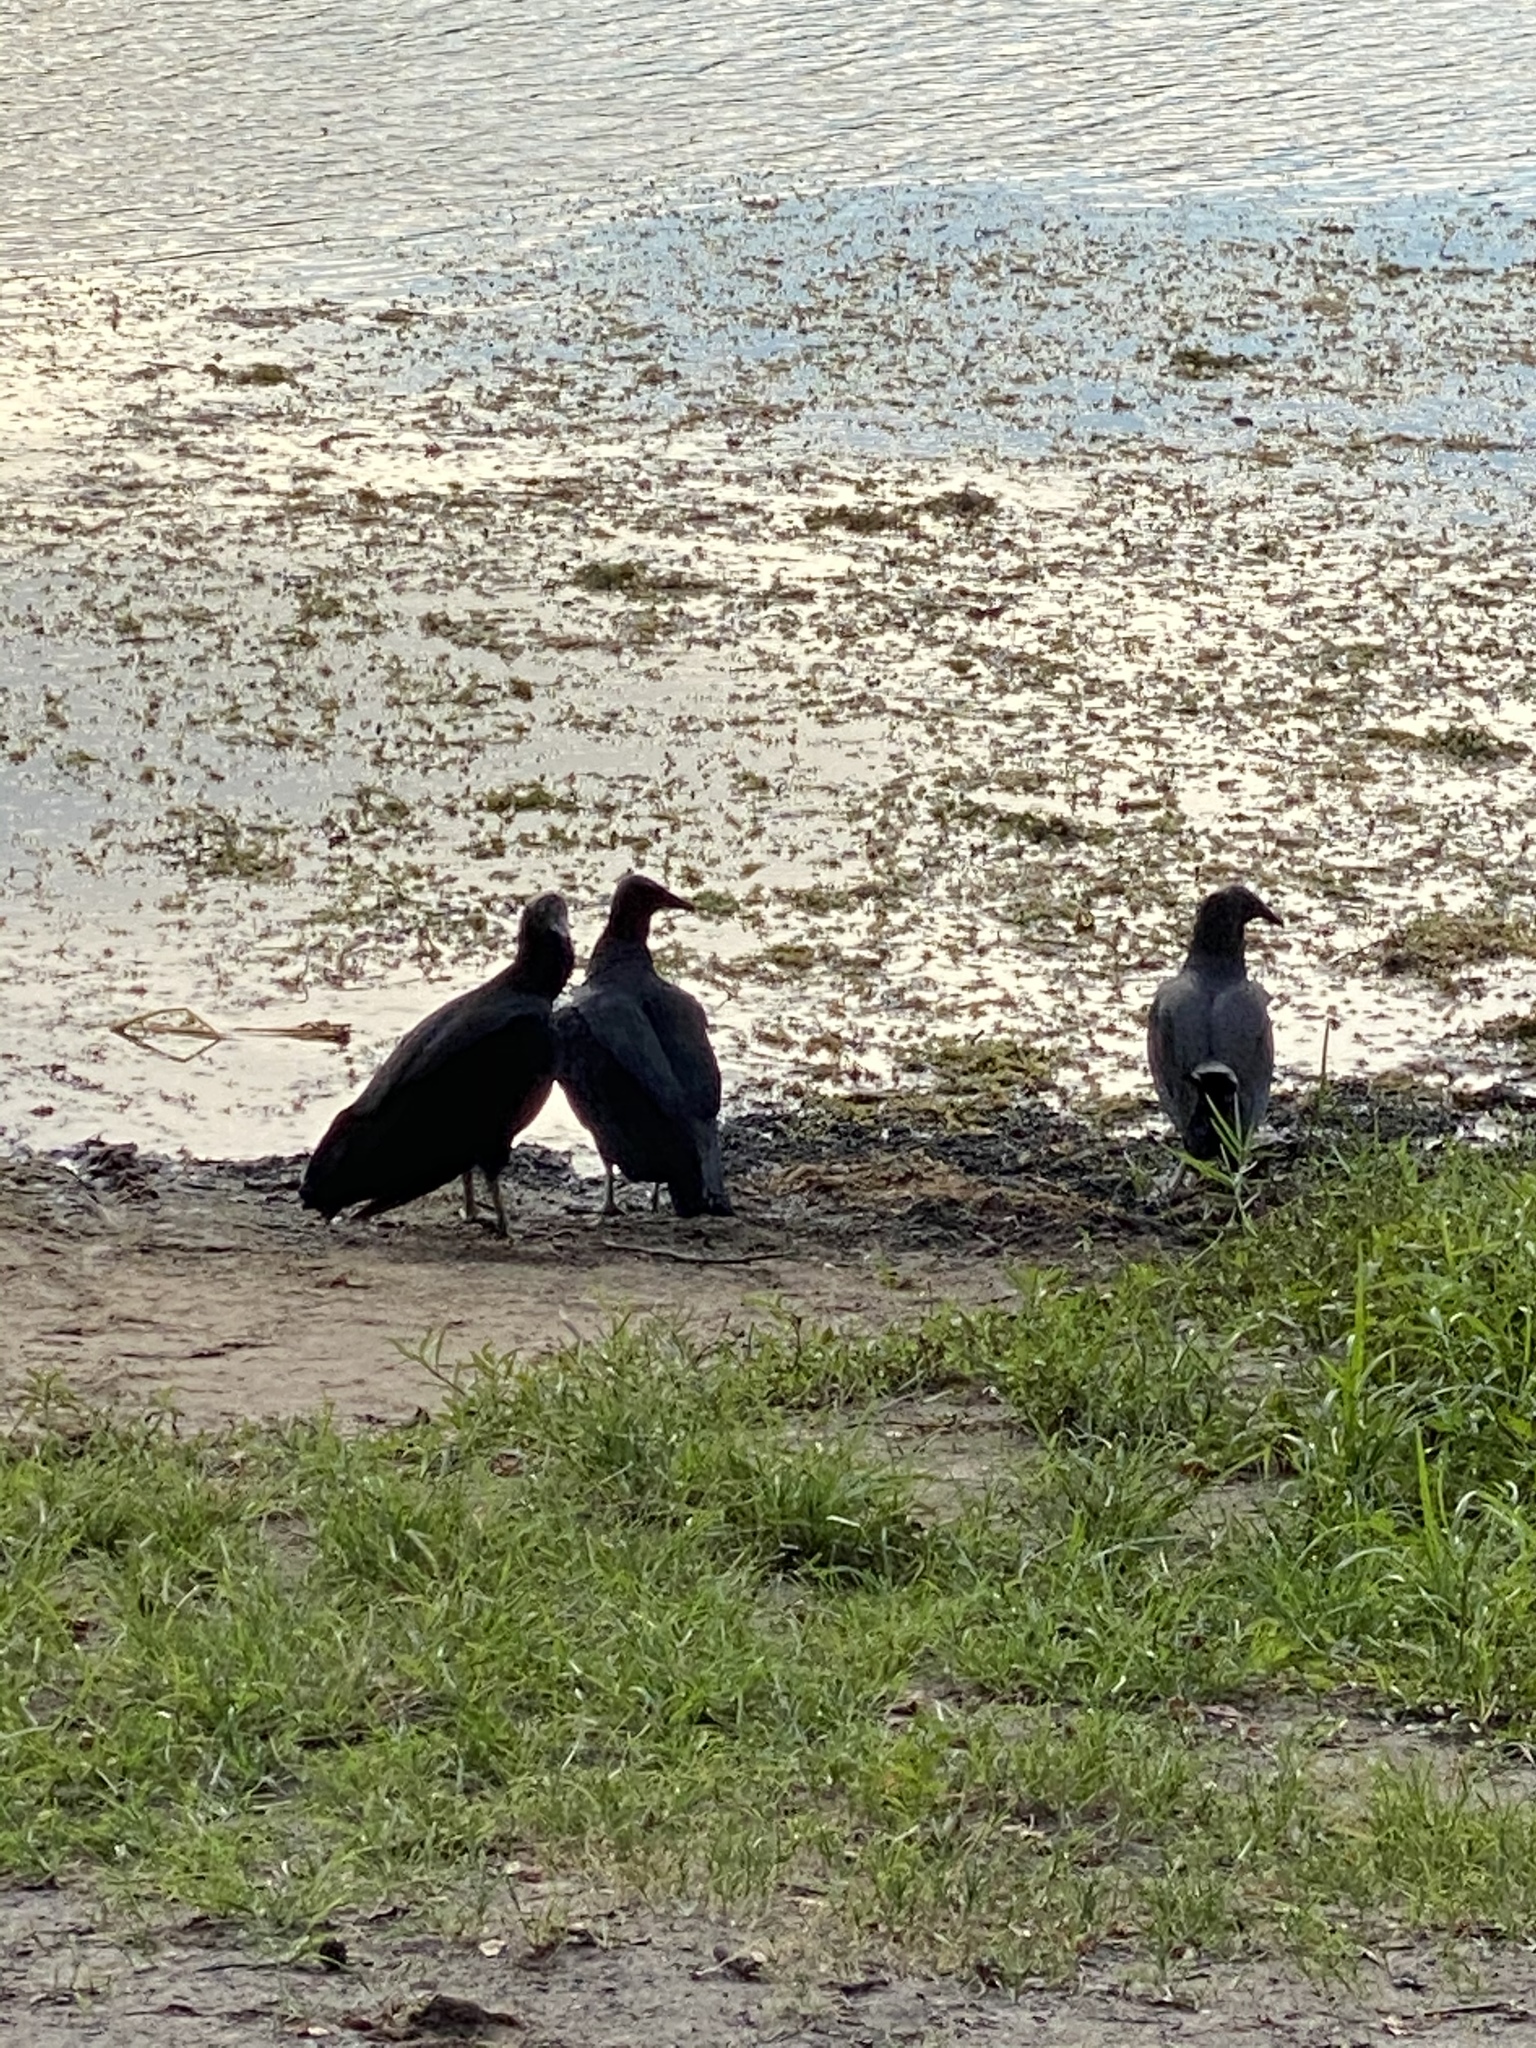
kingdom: Animalia
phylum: Chordata
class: Aves
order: Accipitriformes
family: Cathartidae
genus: Coragyps
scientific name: Coragyps atratus
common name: Black vulture
